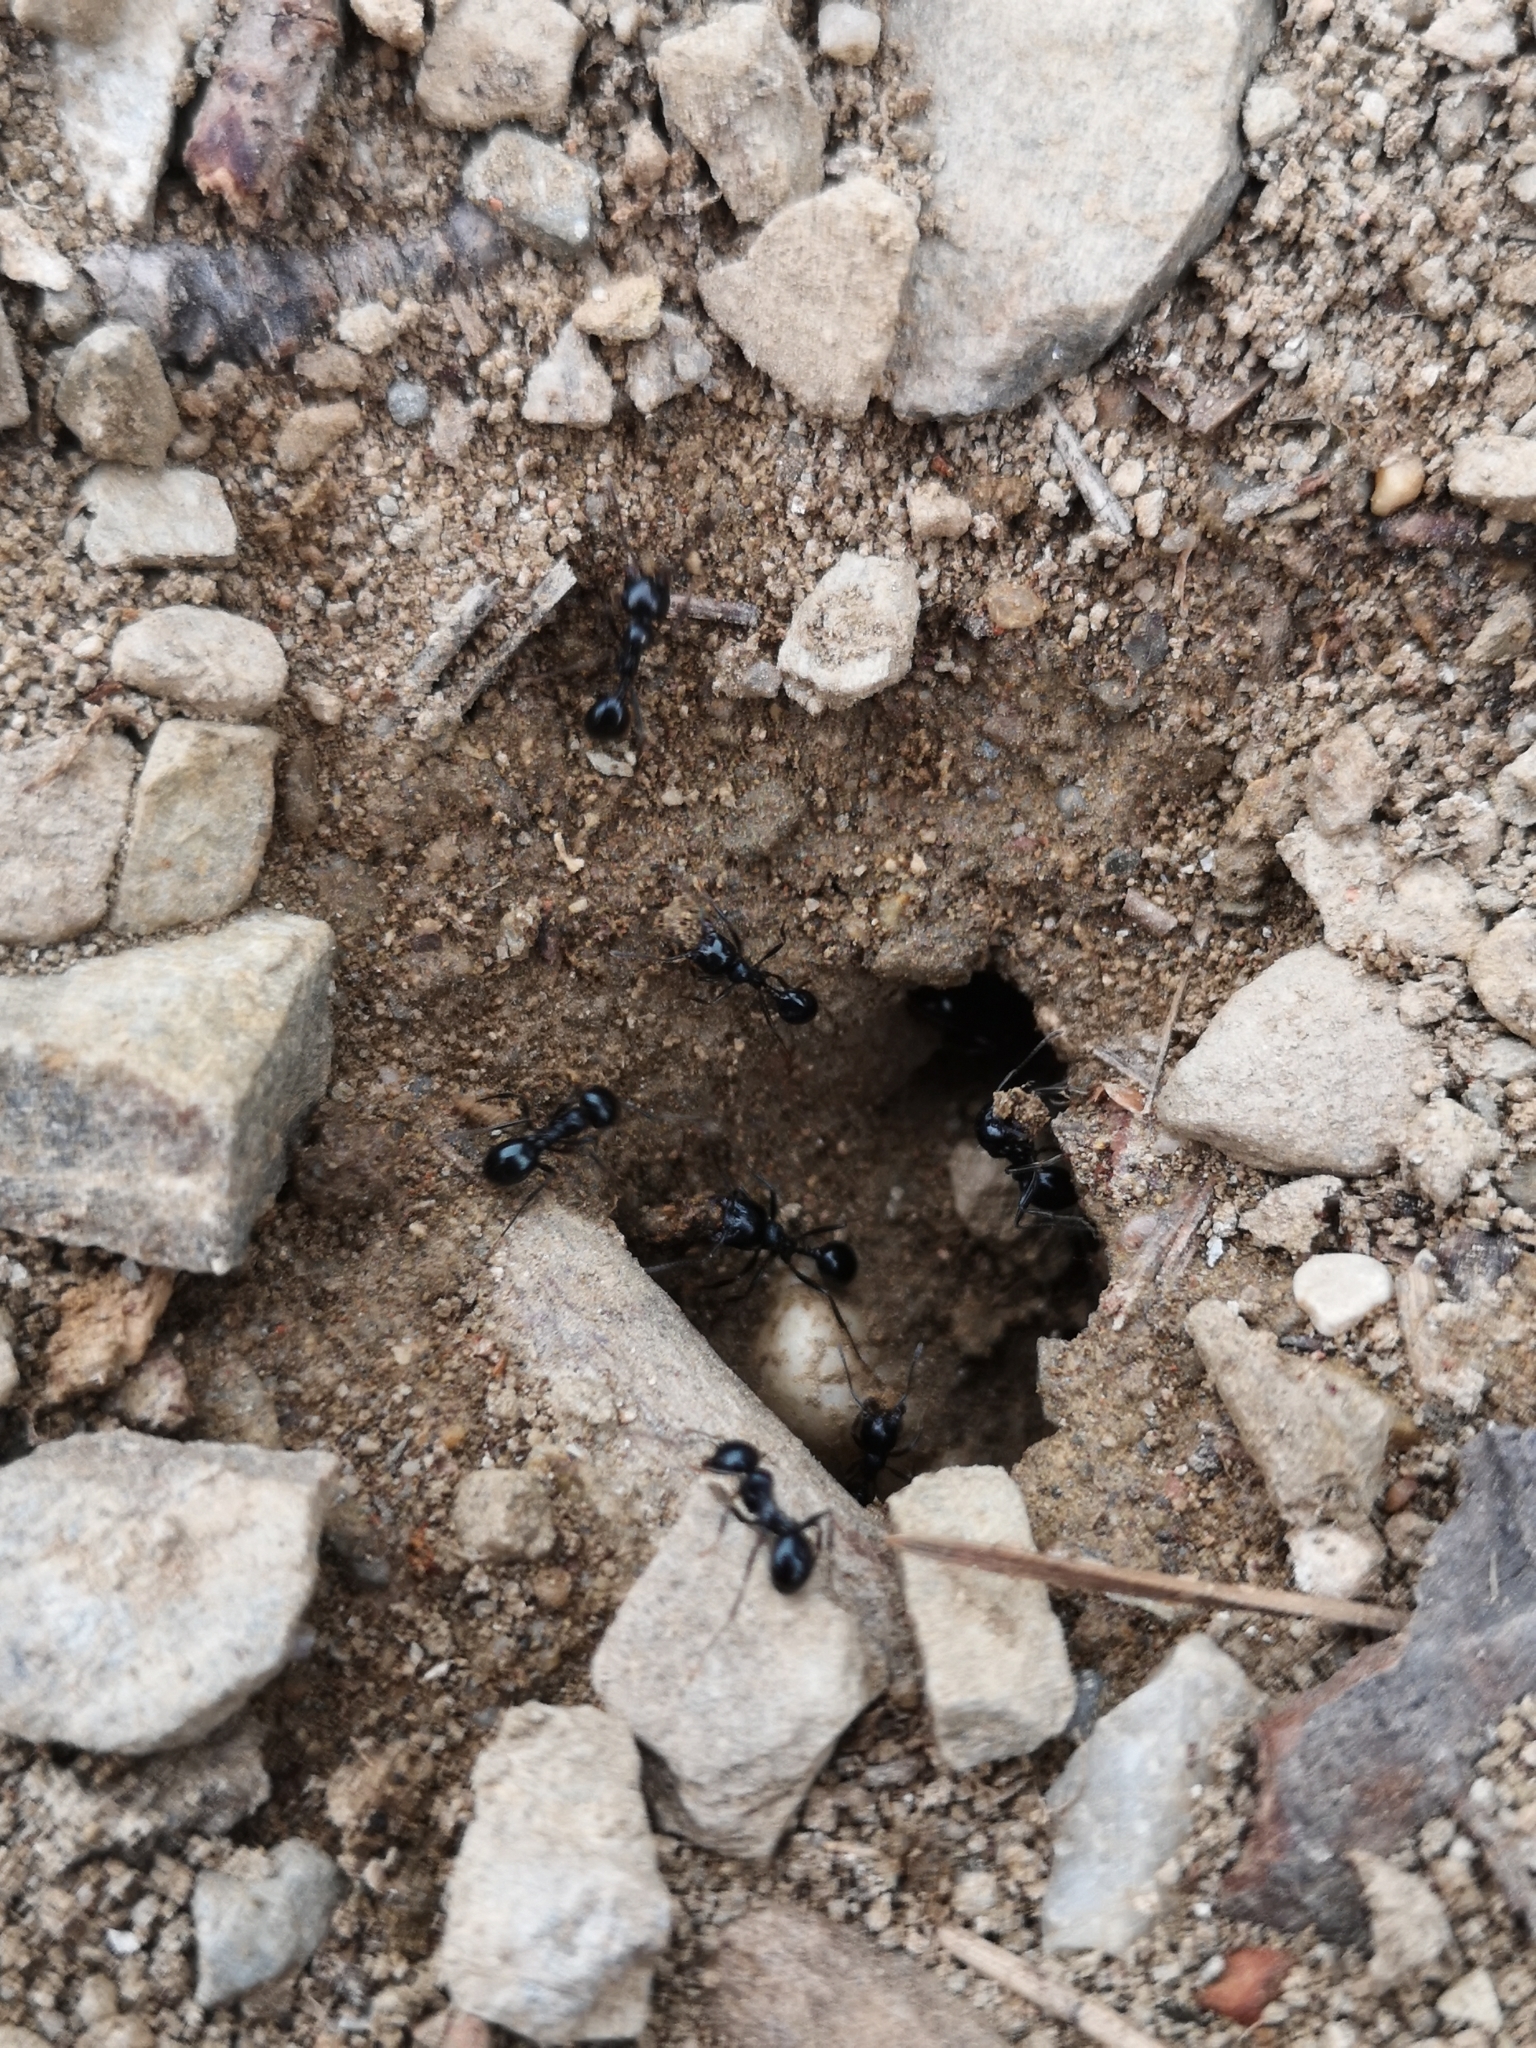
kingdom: Animalia
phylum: Arthropoda
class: Insecta
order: Hymenoptera
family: Formicidae
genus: Messor
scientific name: Messor bouvieri
